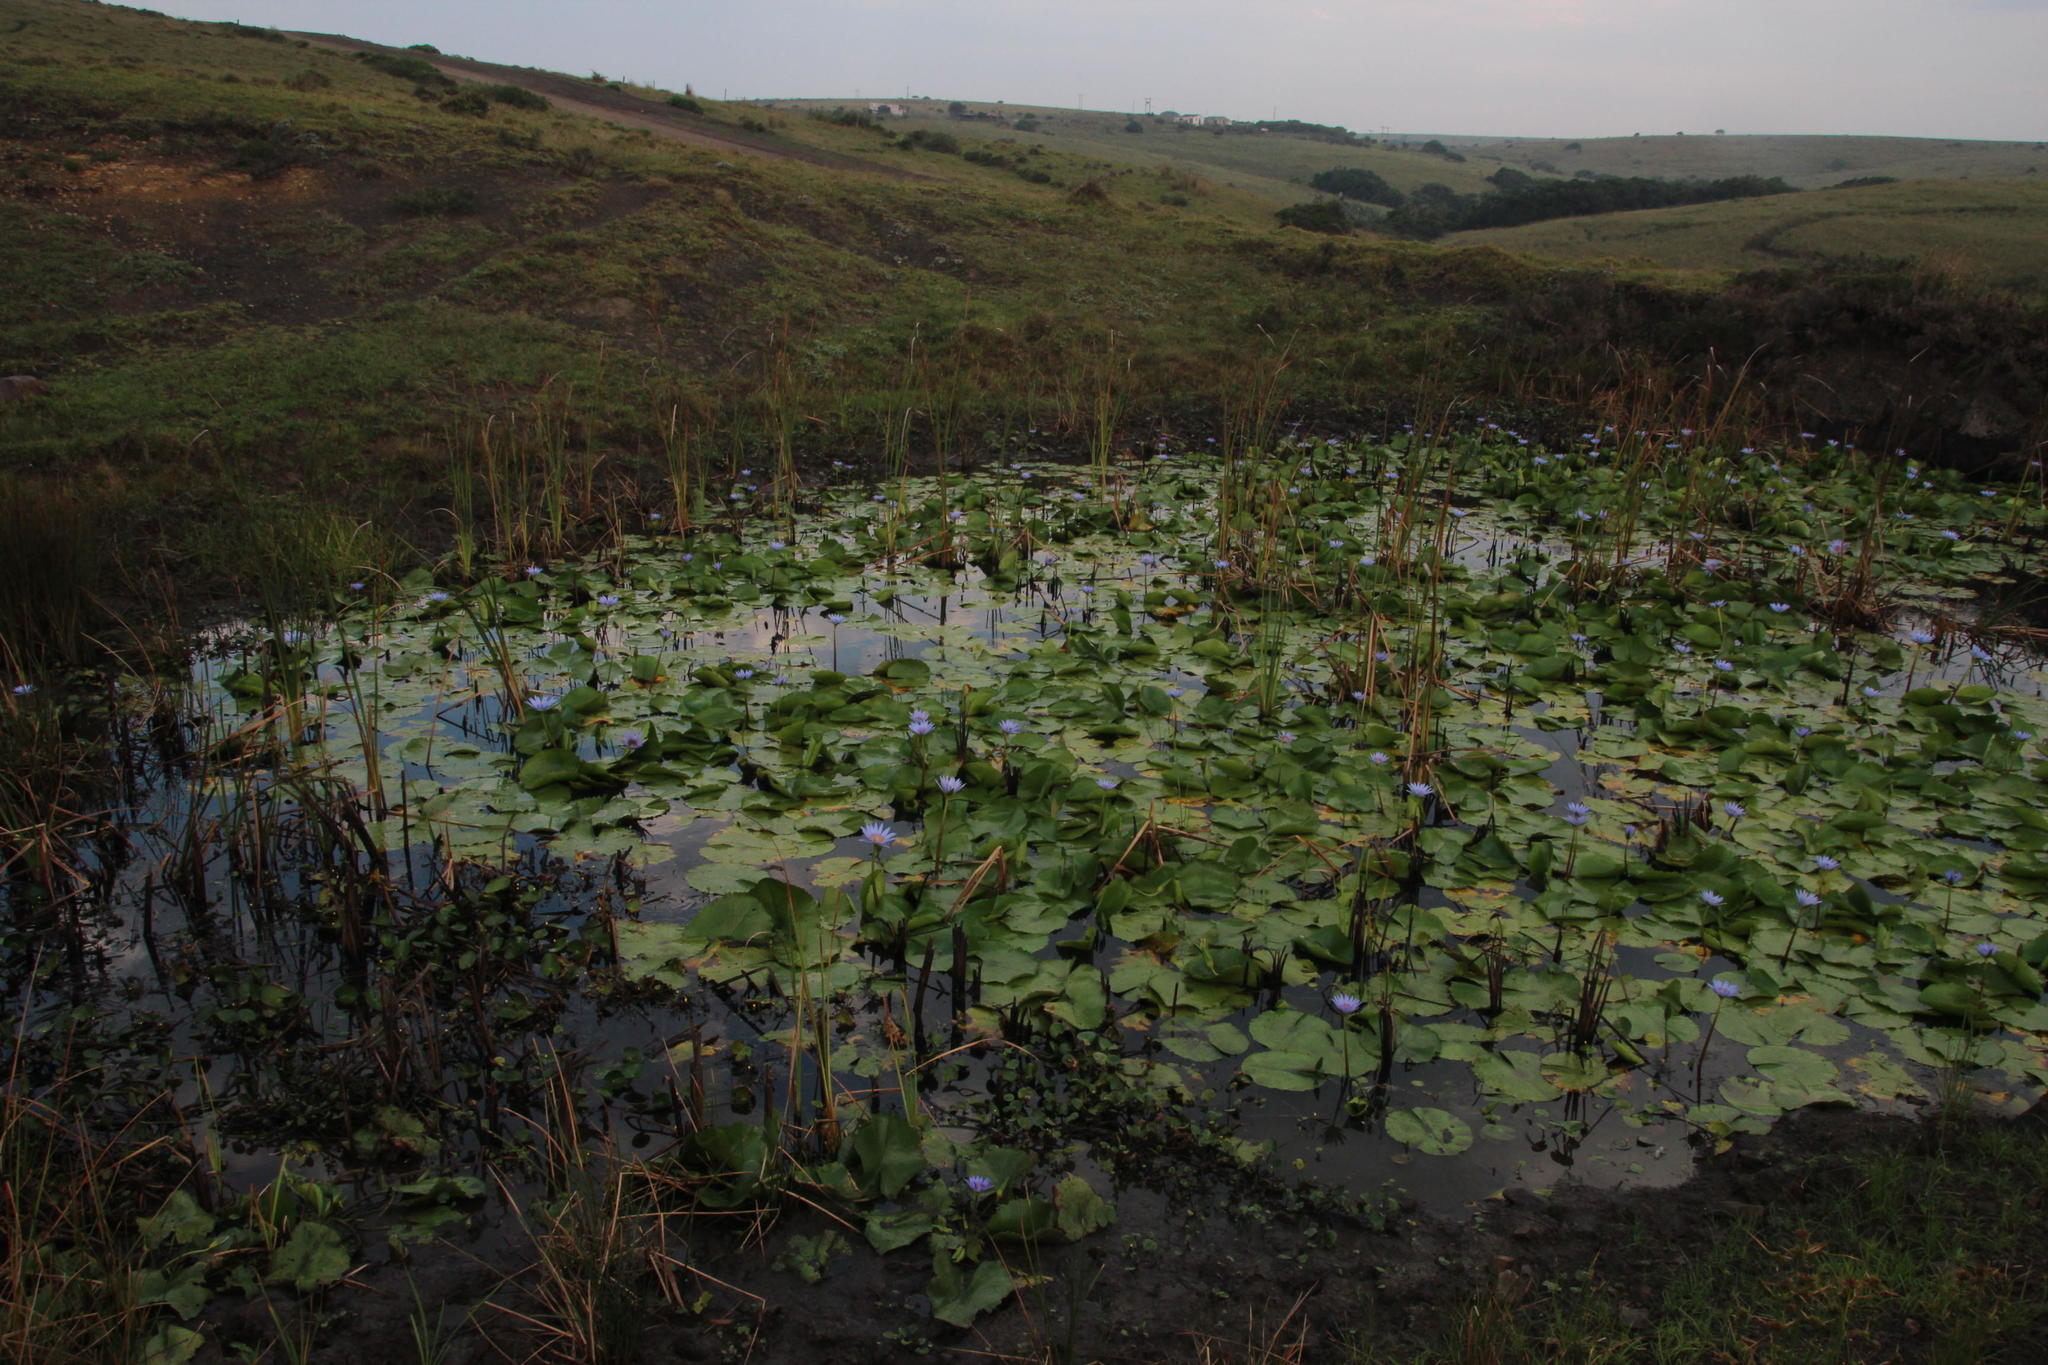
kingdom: Plantae
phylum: Tracheophyta
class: Magnoliopsida
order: Nymphaeales
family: Nymphaeaceae
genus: Nymphaea
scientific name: Nymphaea nouchali
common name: Blue lotus
